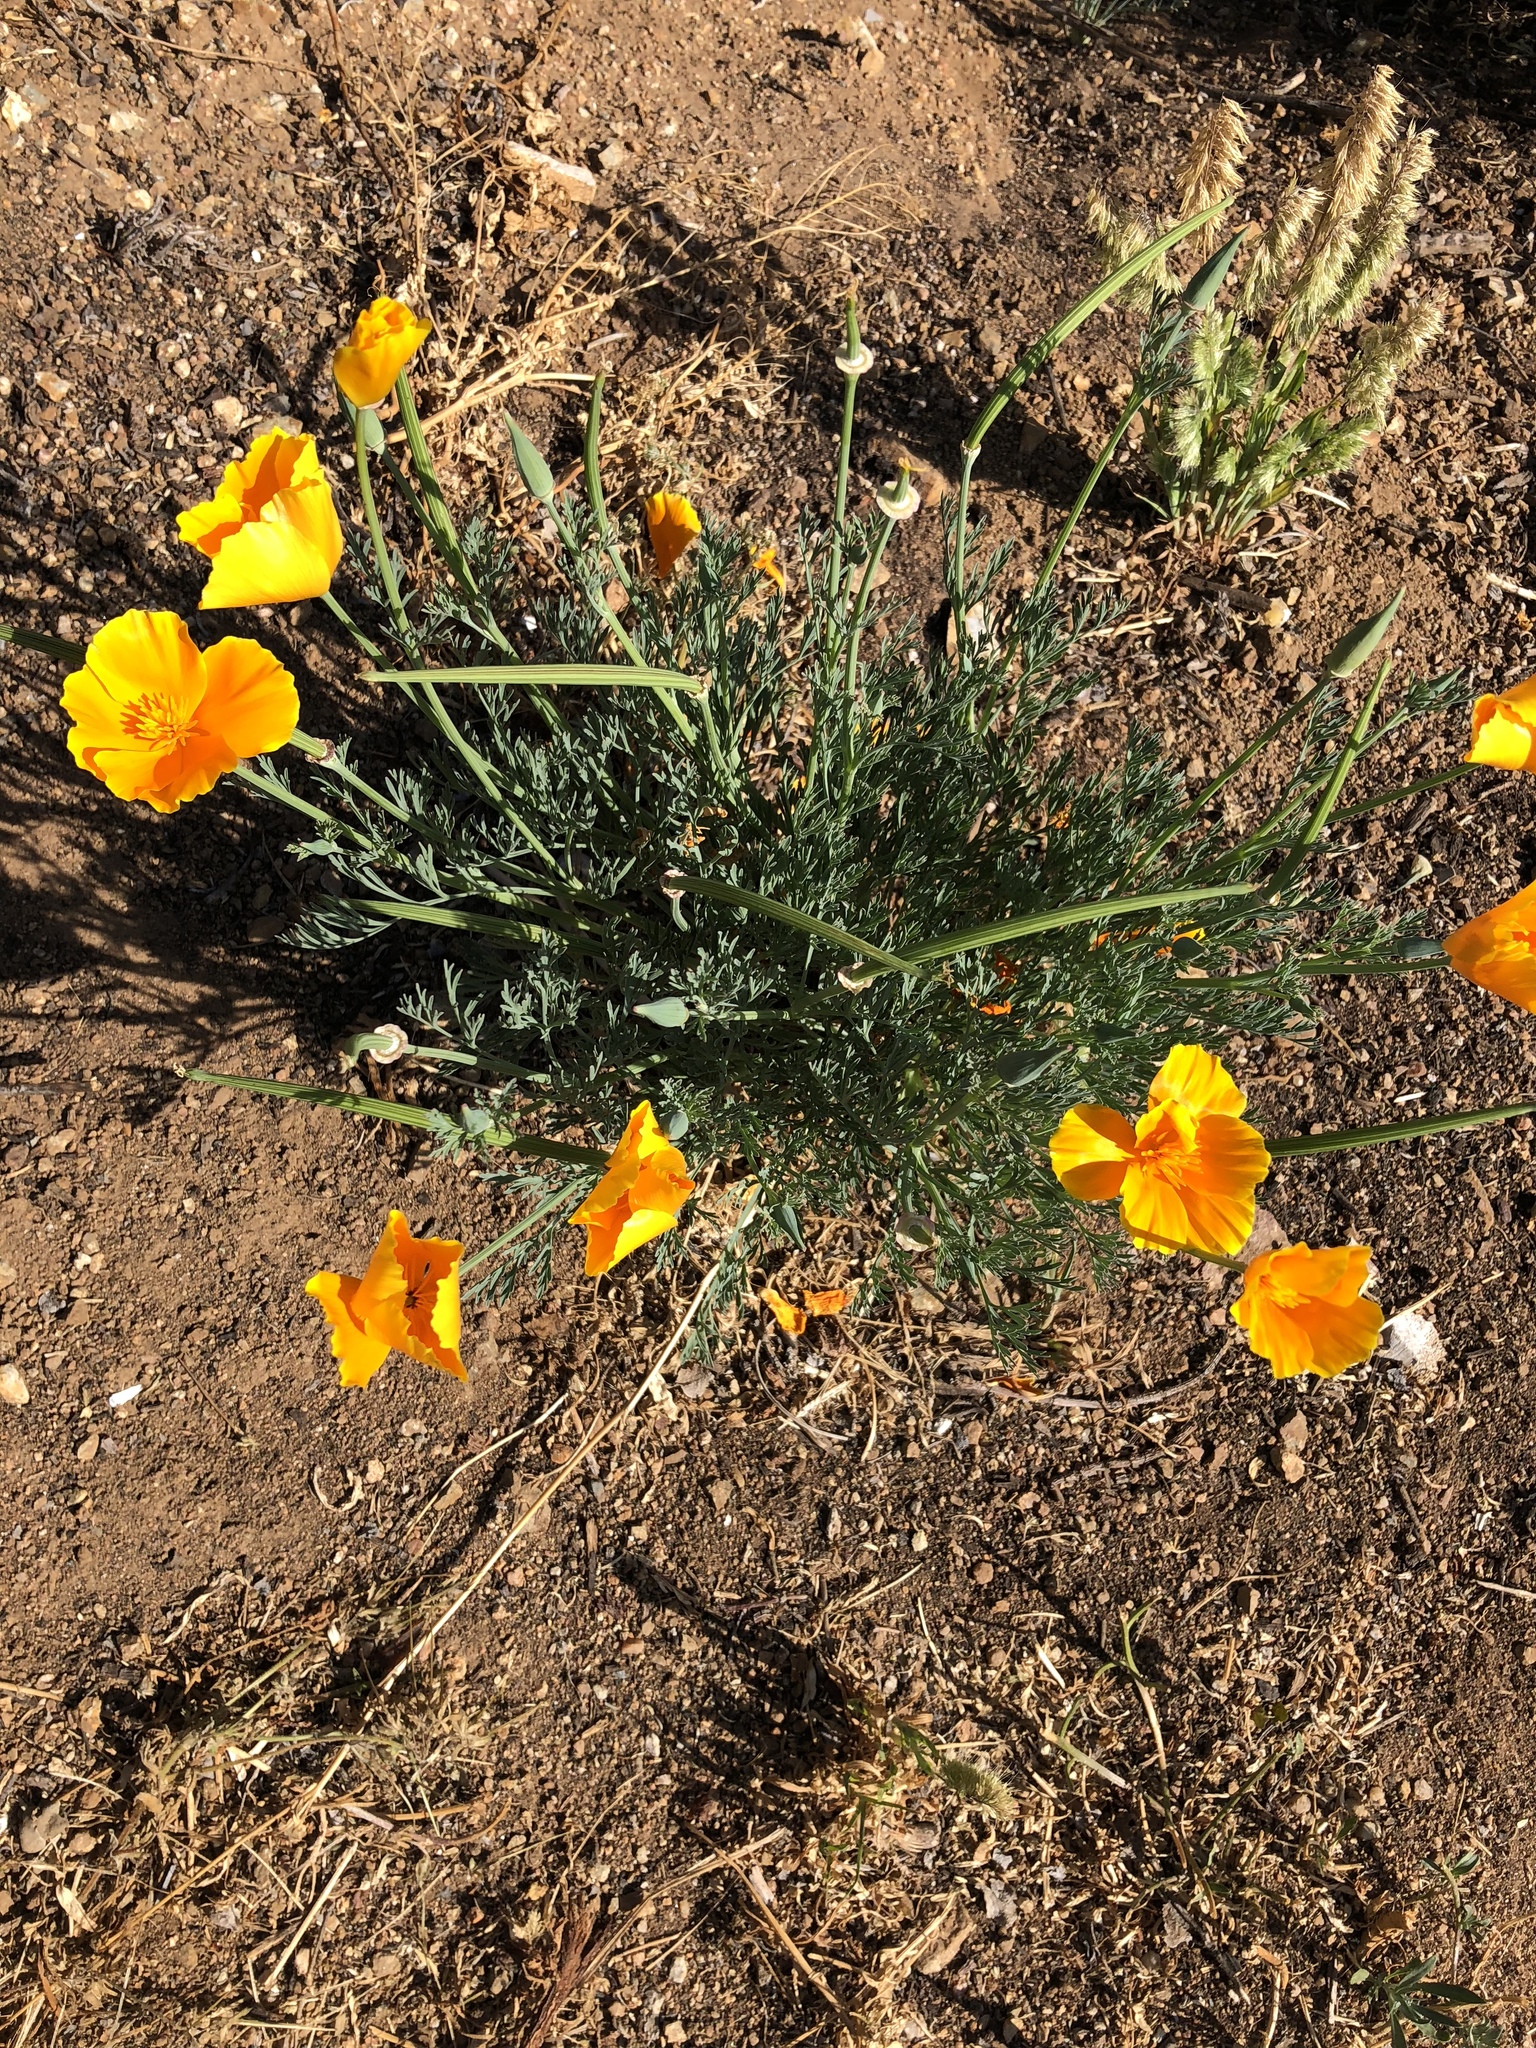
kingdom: Plantae
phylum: Tracheophyta
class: Magnoliopsida
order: Ranunculales
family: Papaveraceae
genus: Eschscholzia
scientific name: Eschscholzia californica
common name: California poppy
